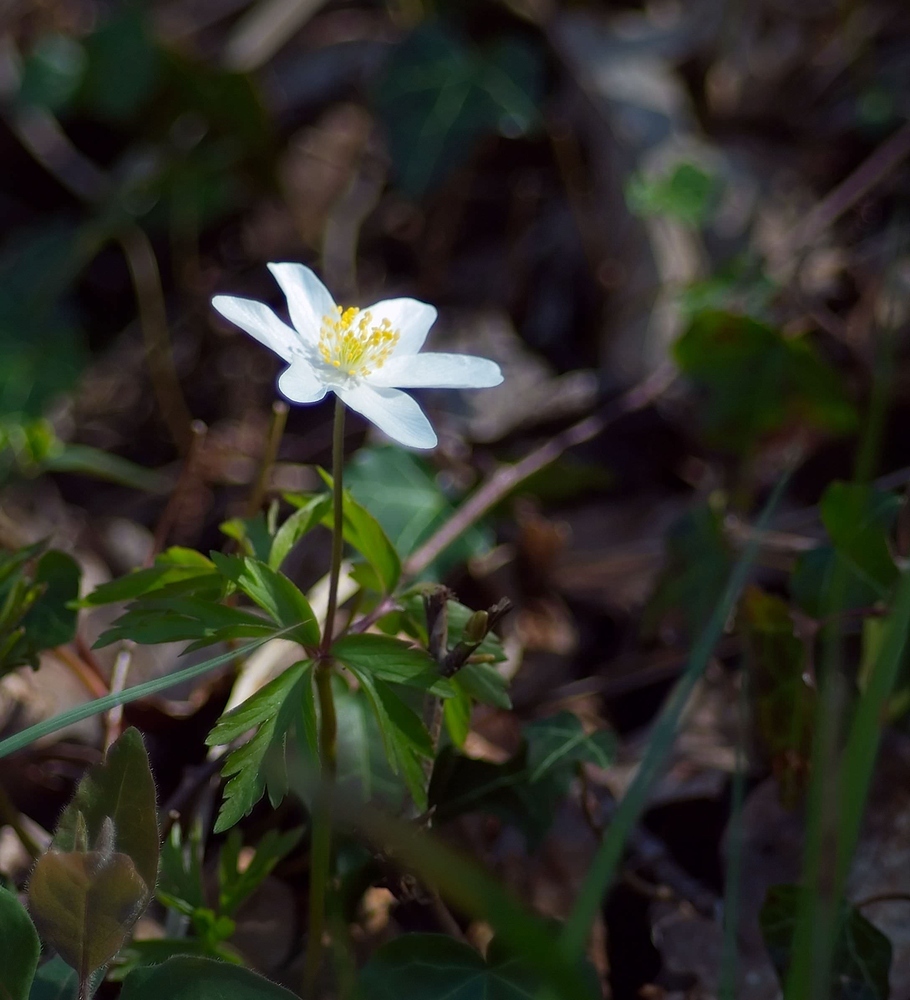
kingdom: Plantae
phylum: Tracheophyta
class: Magnoliopsida
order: Ranunculales
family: Ranunculaceae
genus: Anemone
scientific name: Anemone nemorosa
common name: Wood anemone
